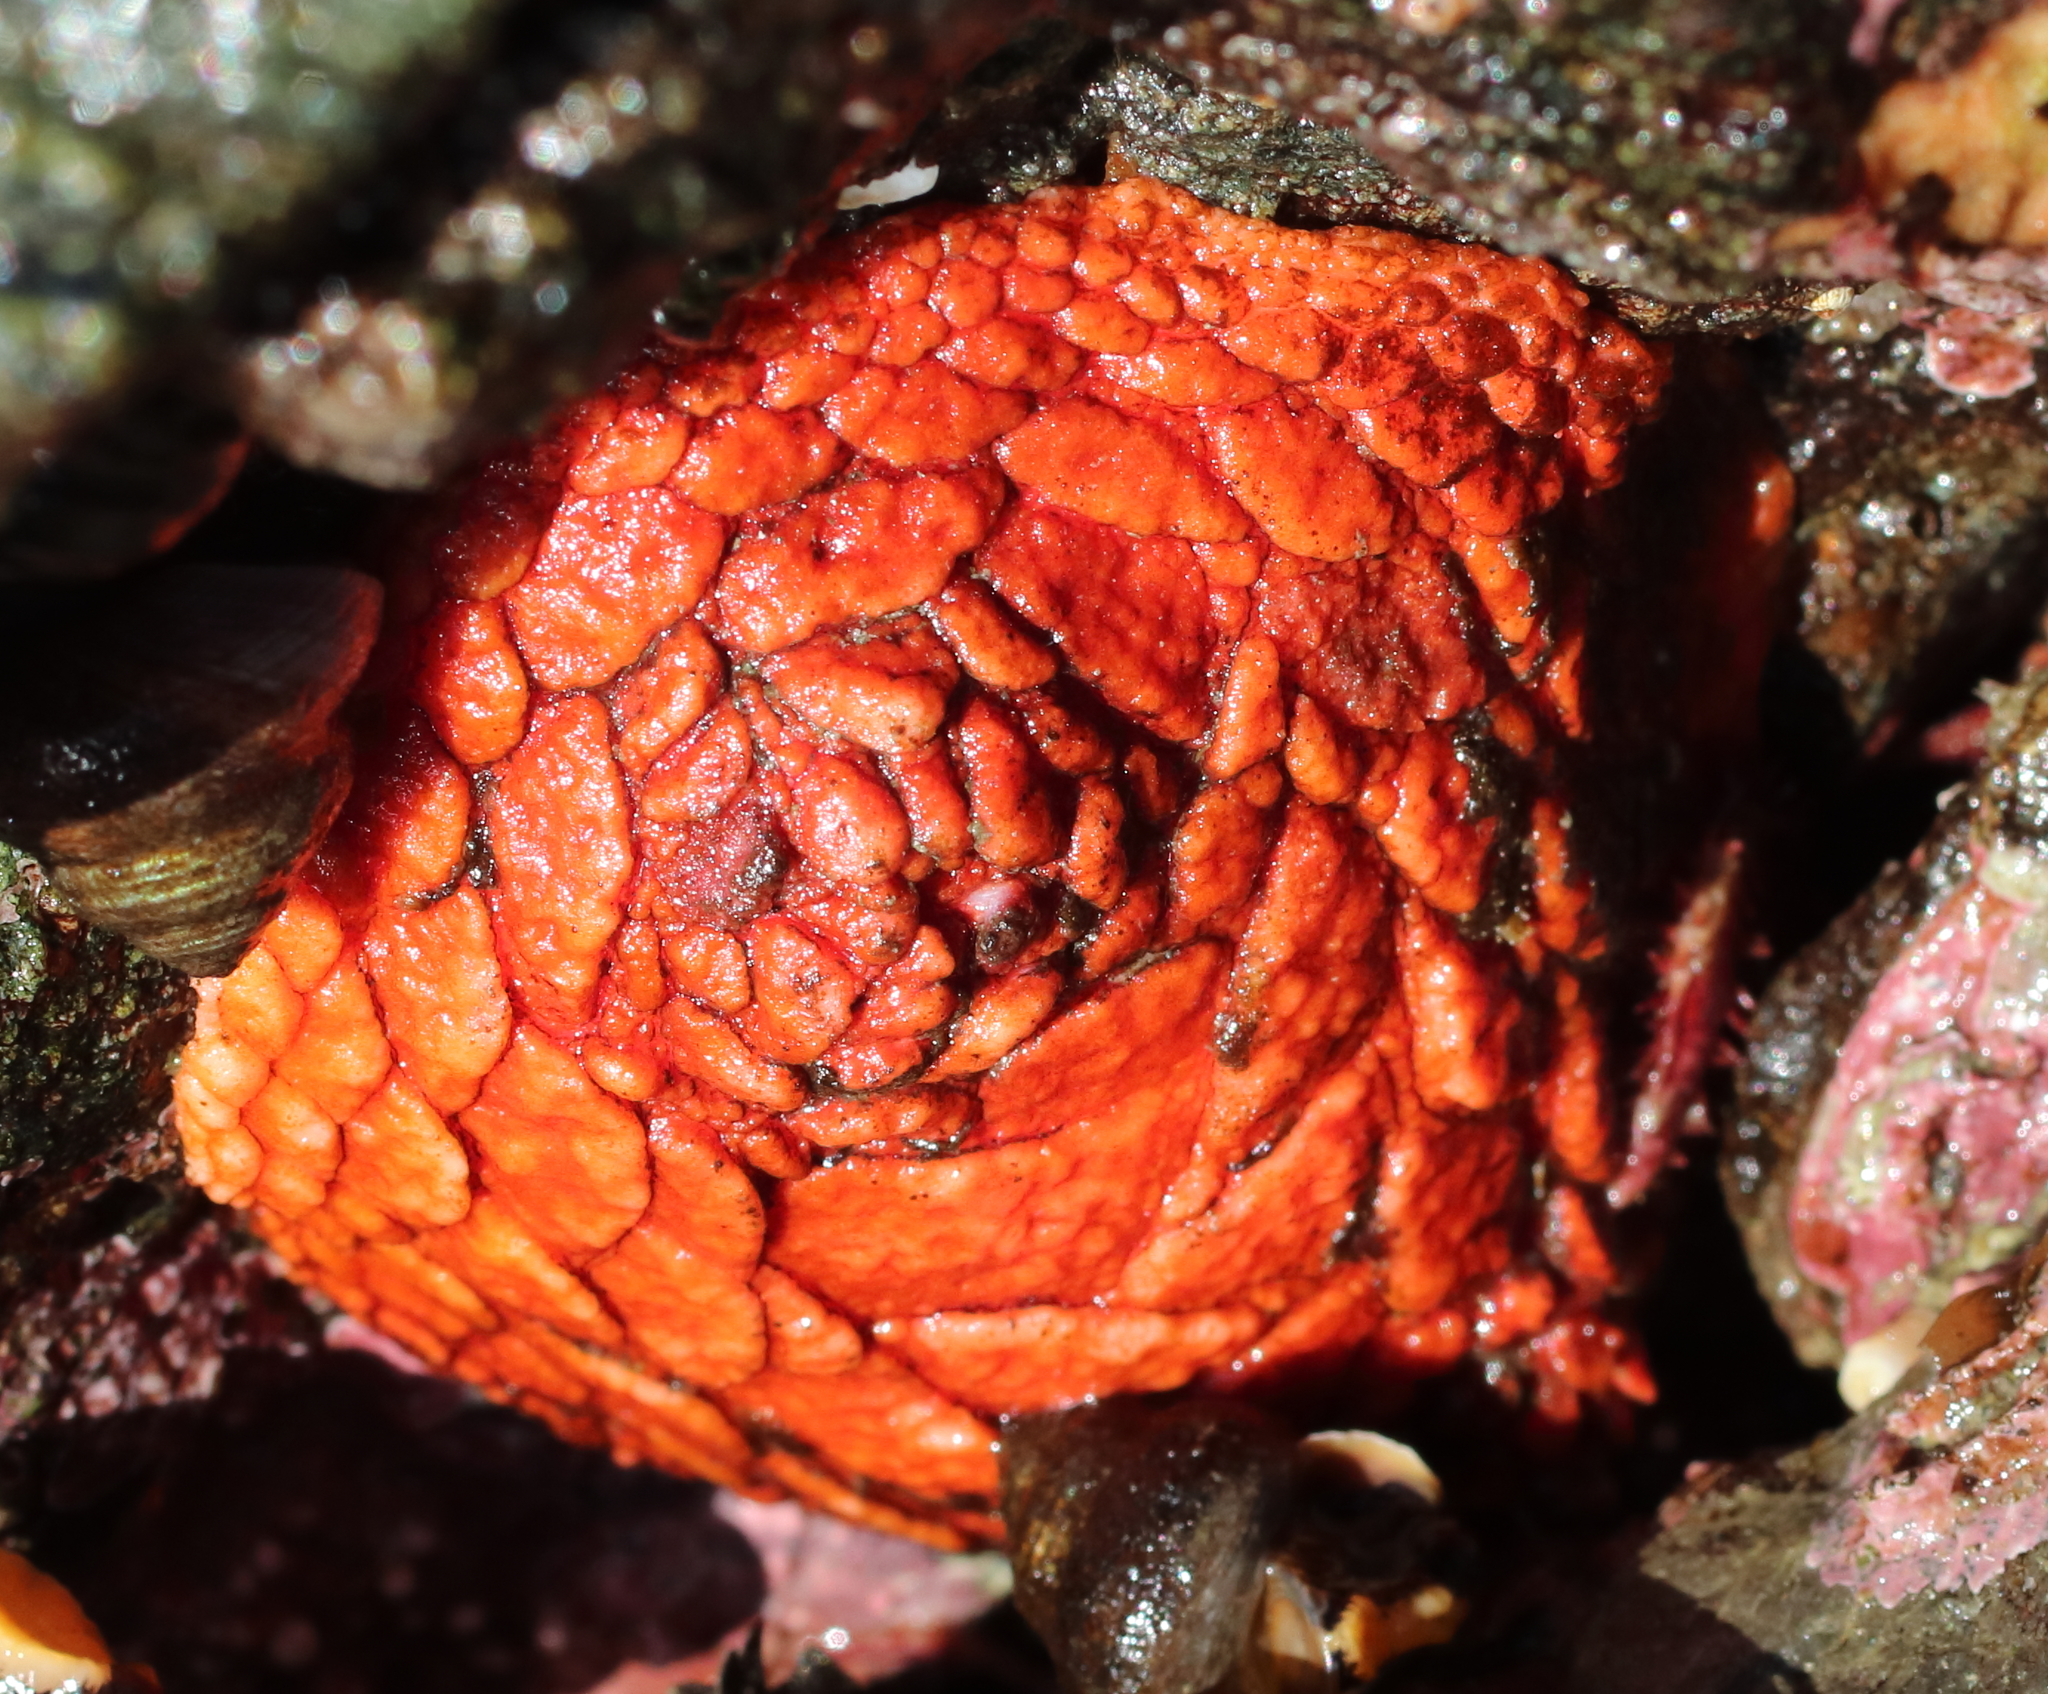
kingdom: Animalia
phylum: Echinodermata
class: Holothuroidea
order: Dendrochirotida
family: Psolidae
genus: Psolus
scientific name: Psolus chitonoides
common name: Creeping pedal sea cucumber
